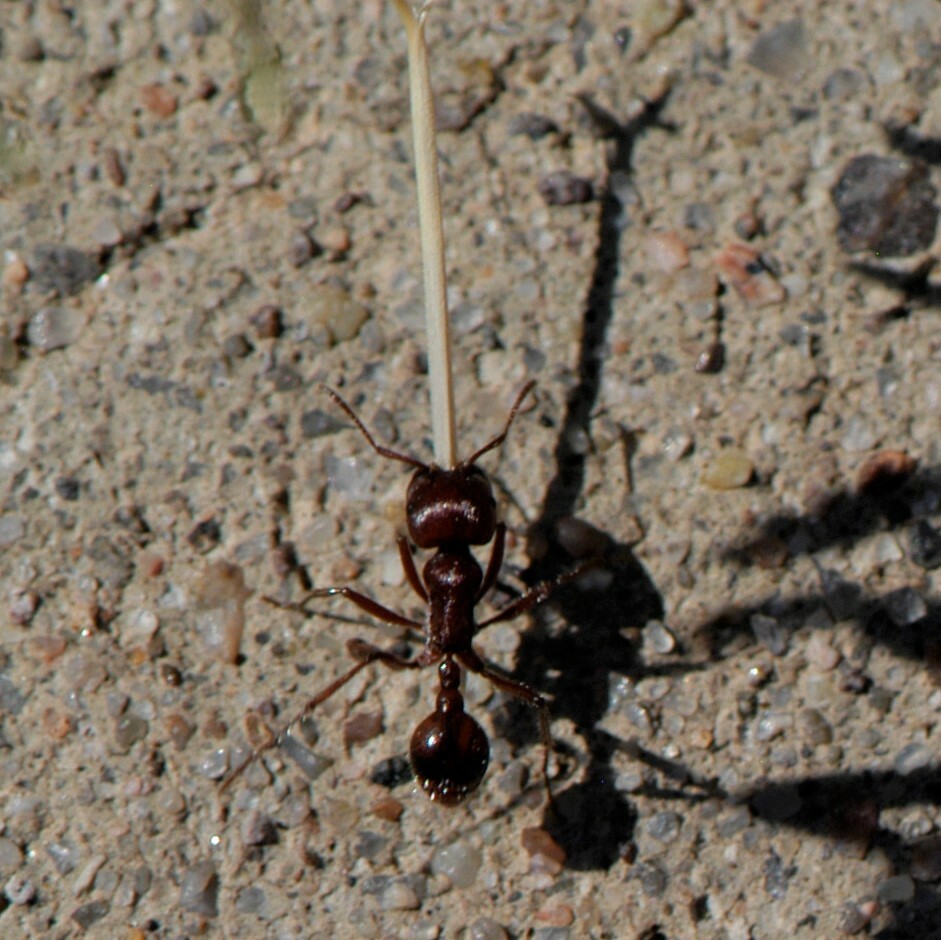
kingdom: Animalia
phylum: Arthropoda
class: Insecta
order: Hymenoptera
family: Formicidae
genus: Pogonomyrmex
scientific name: Pogonomyrmex
